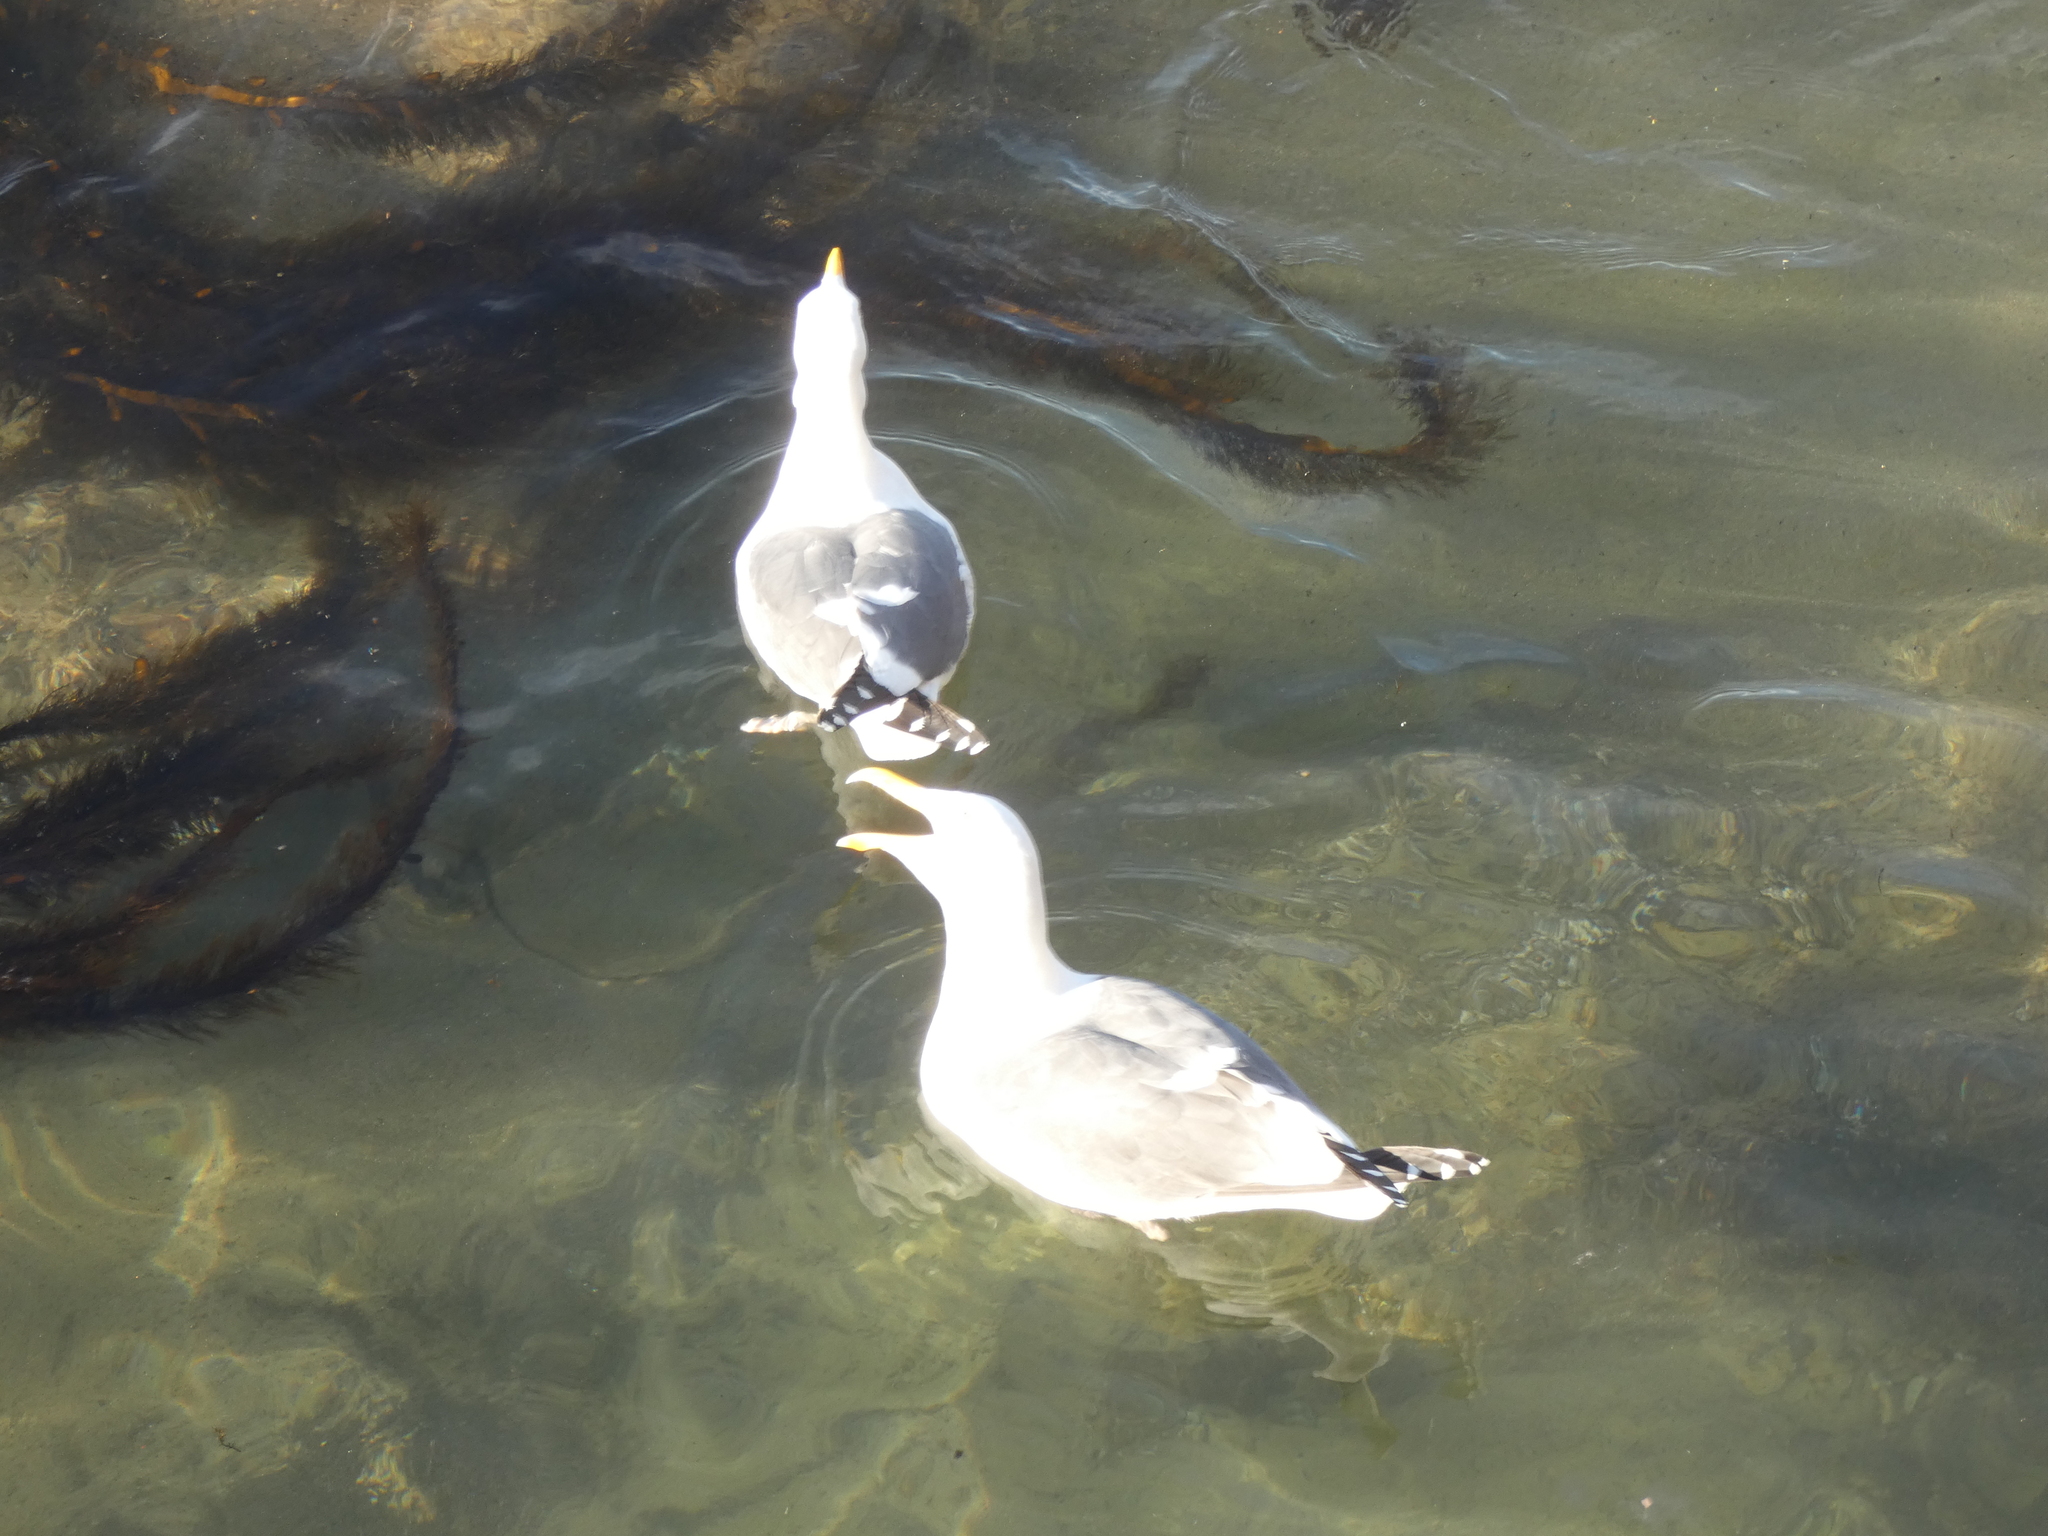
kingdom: Animalia
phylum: Chordata
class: Aves
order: Charadriiformes
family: Laridae
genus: Larus
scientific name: Larus occidentalis
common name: Western gull
